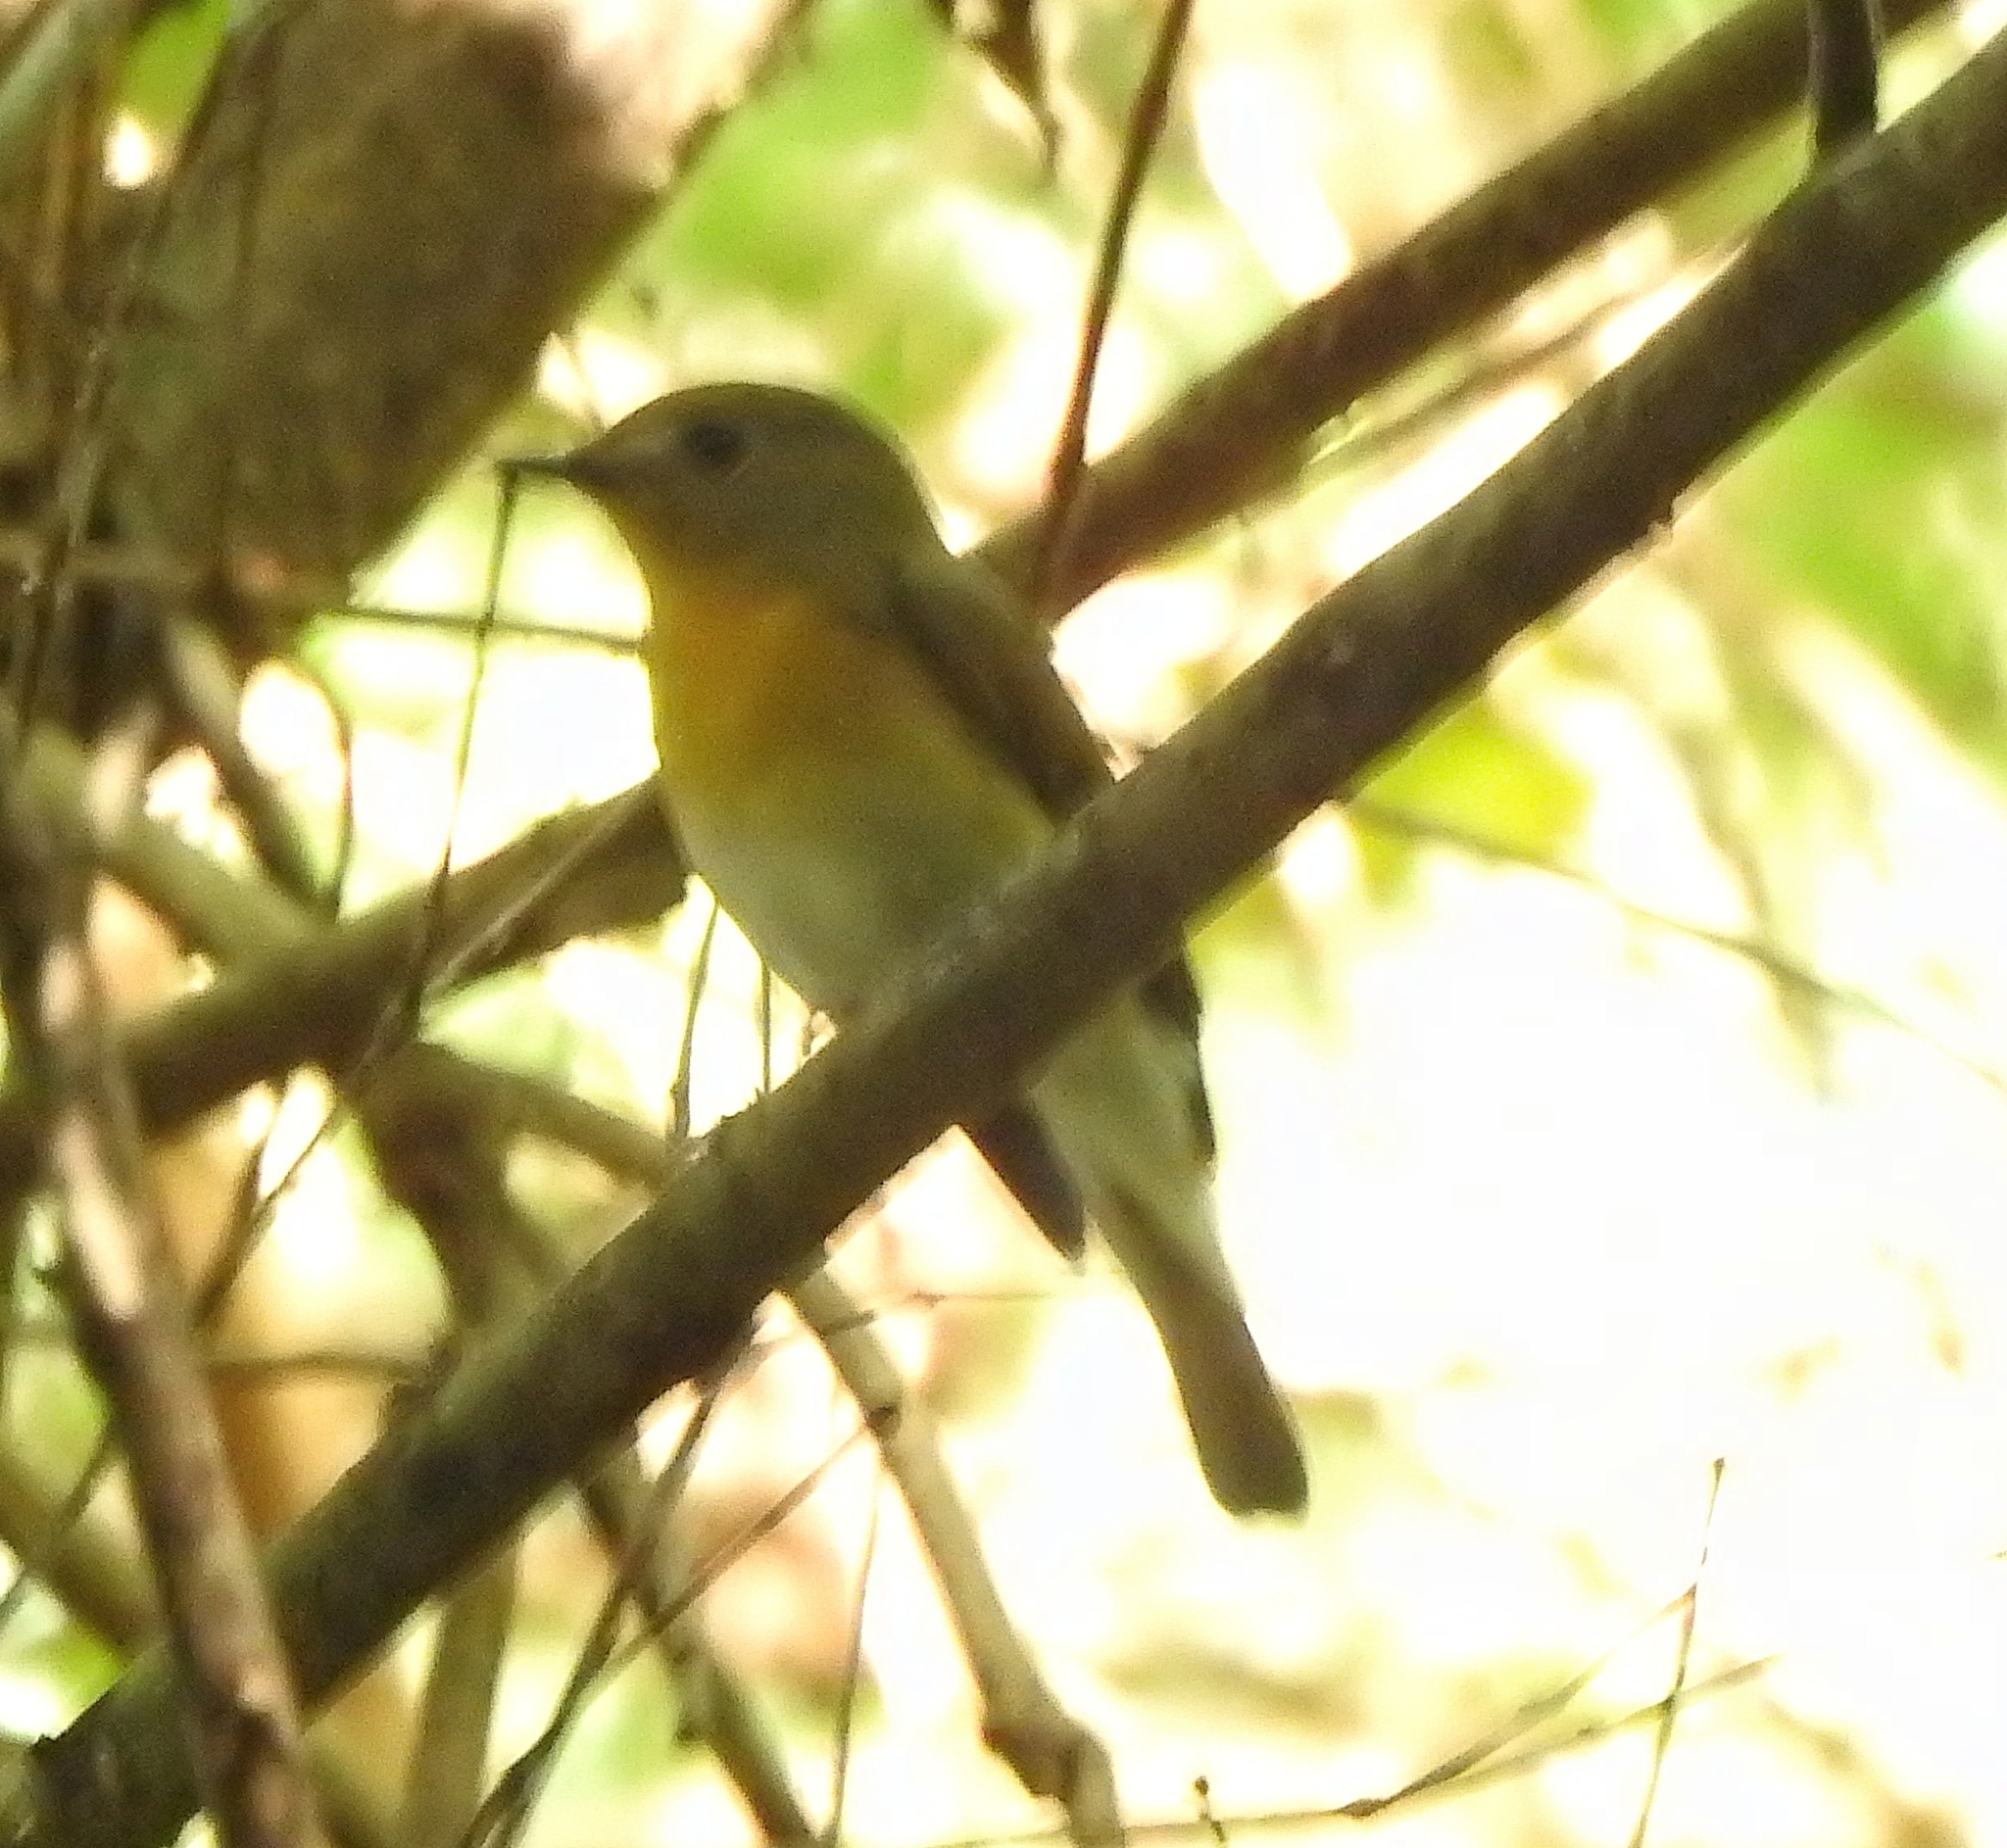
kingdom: Animalia
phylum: Chordata
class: Aves
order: Passeriformes
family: Muscicapidae
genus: Cyornis
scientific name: Cyornis rubeculoides
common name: Blue-throated blue flycatcher
